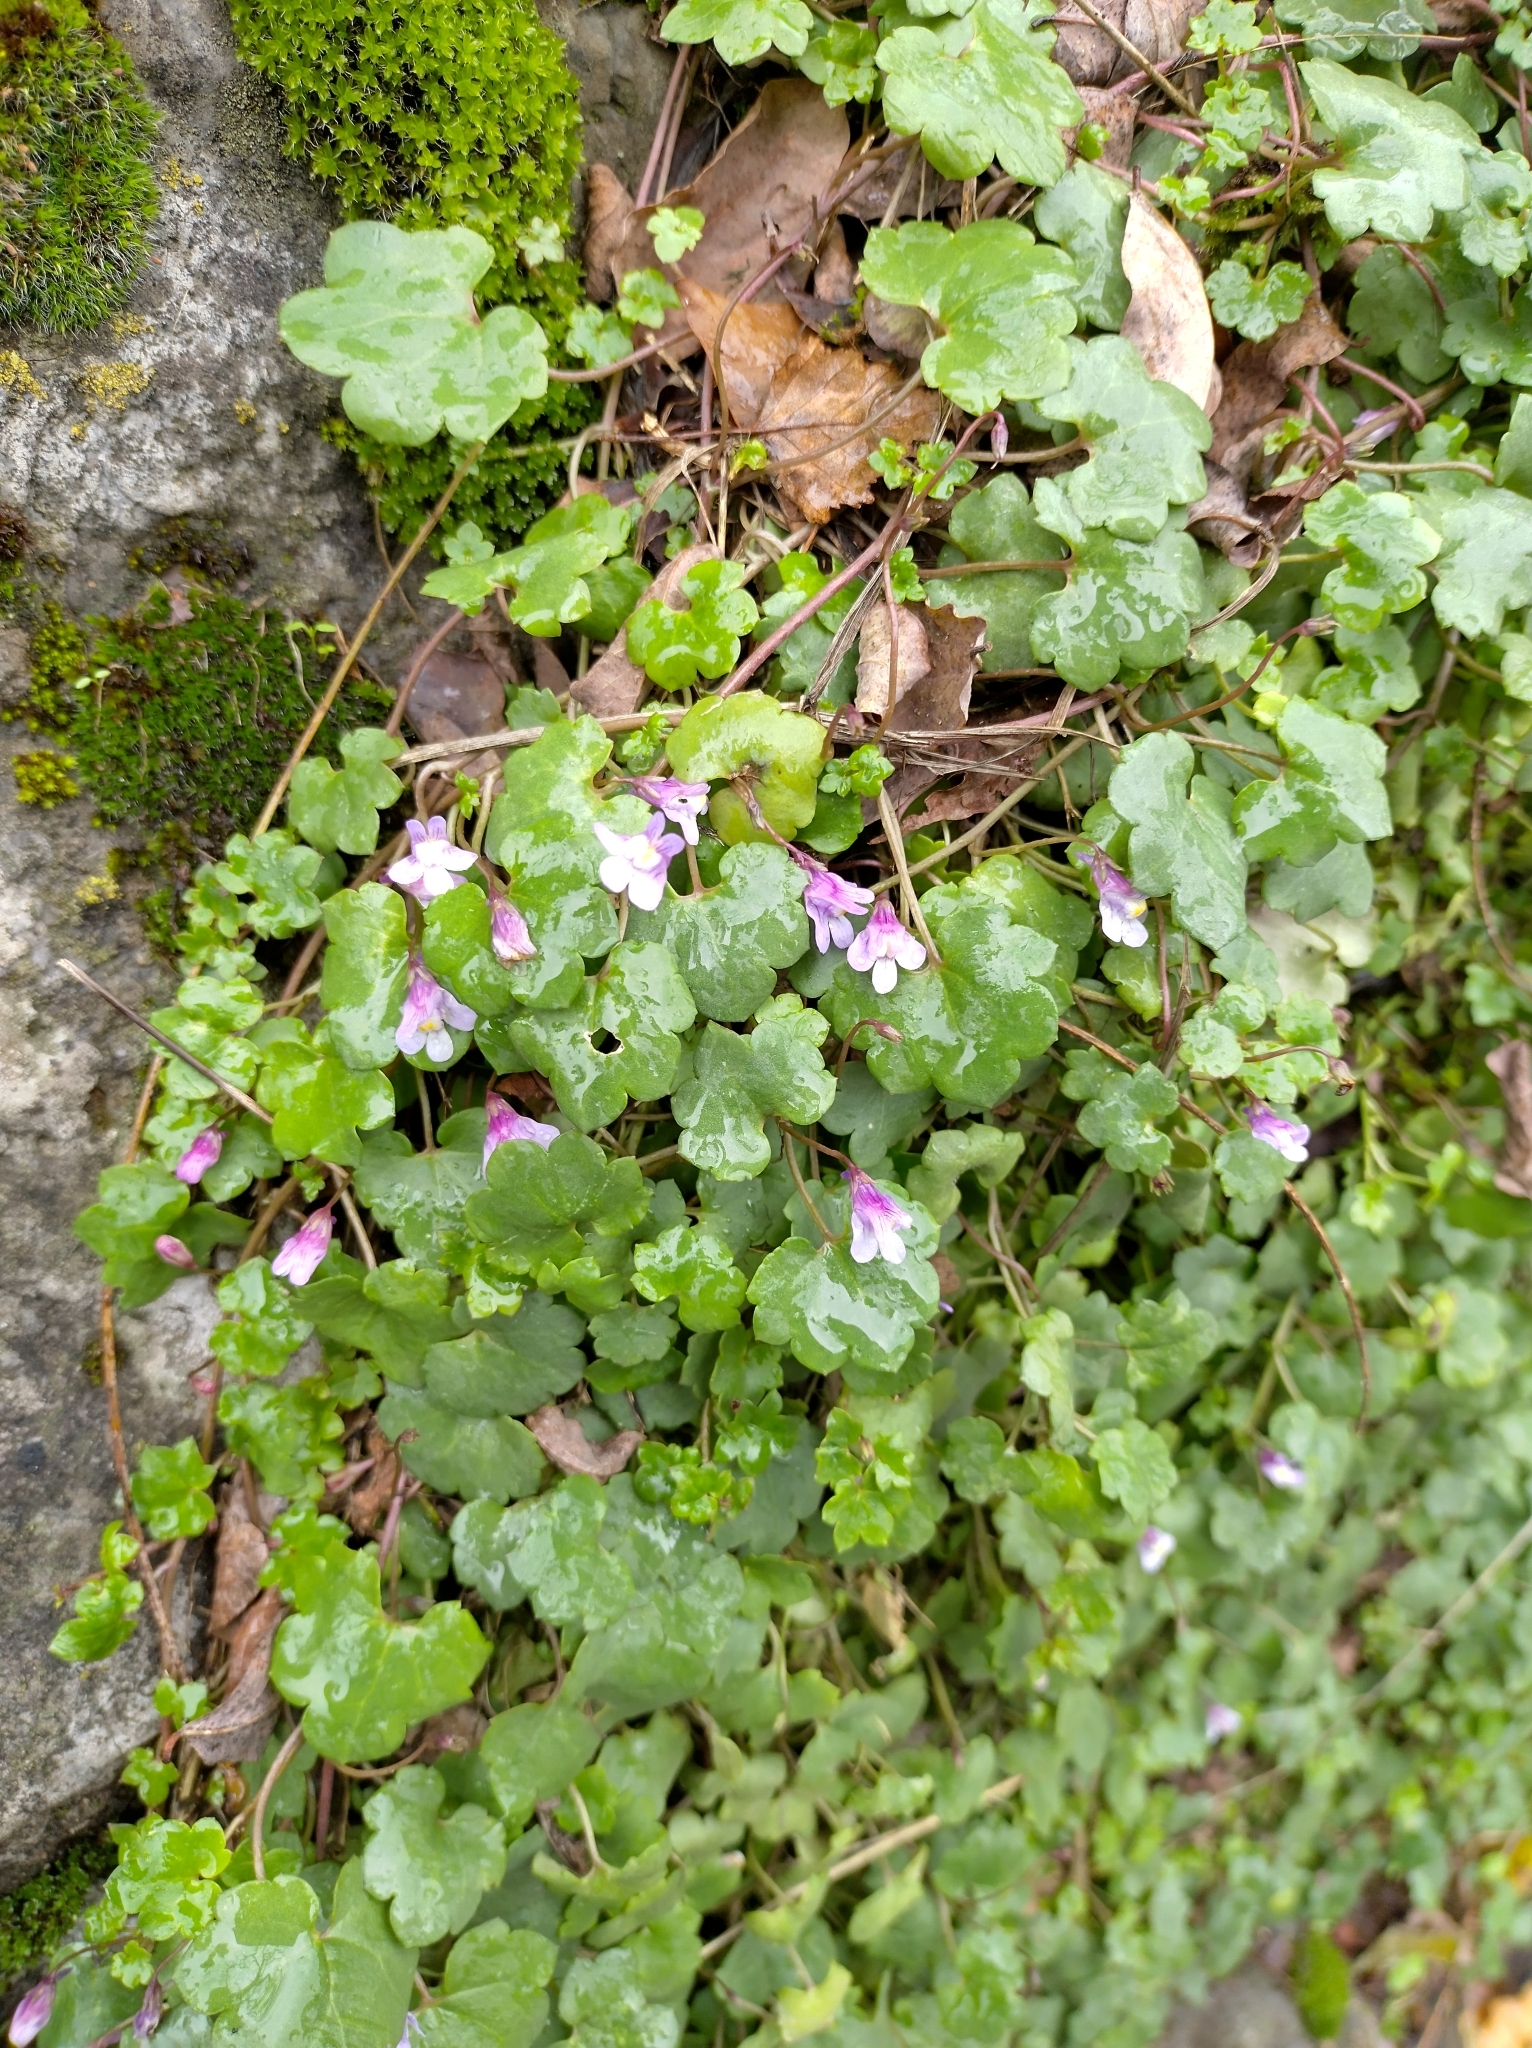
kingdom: Plantae
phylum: Tracheophyta
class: Magnoliopsida
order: Lamiales
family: Plantaginaceae
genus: Cymbalaria
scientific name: Cymbalaria muralis
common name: Ivy-leaved toadflax
